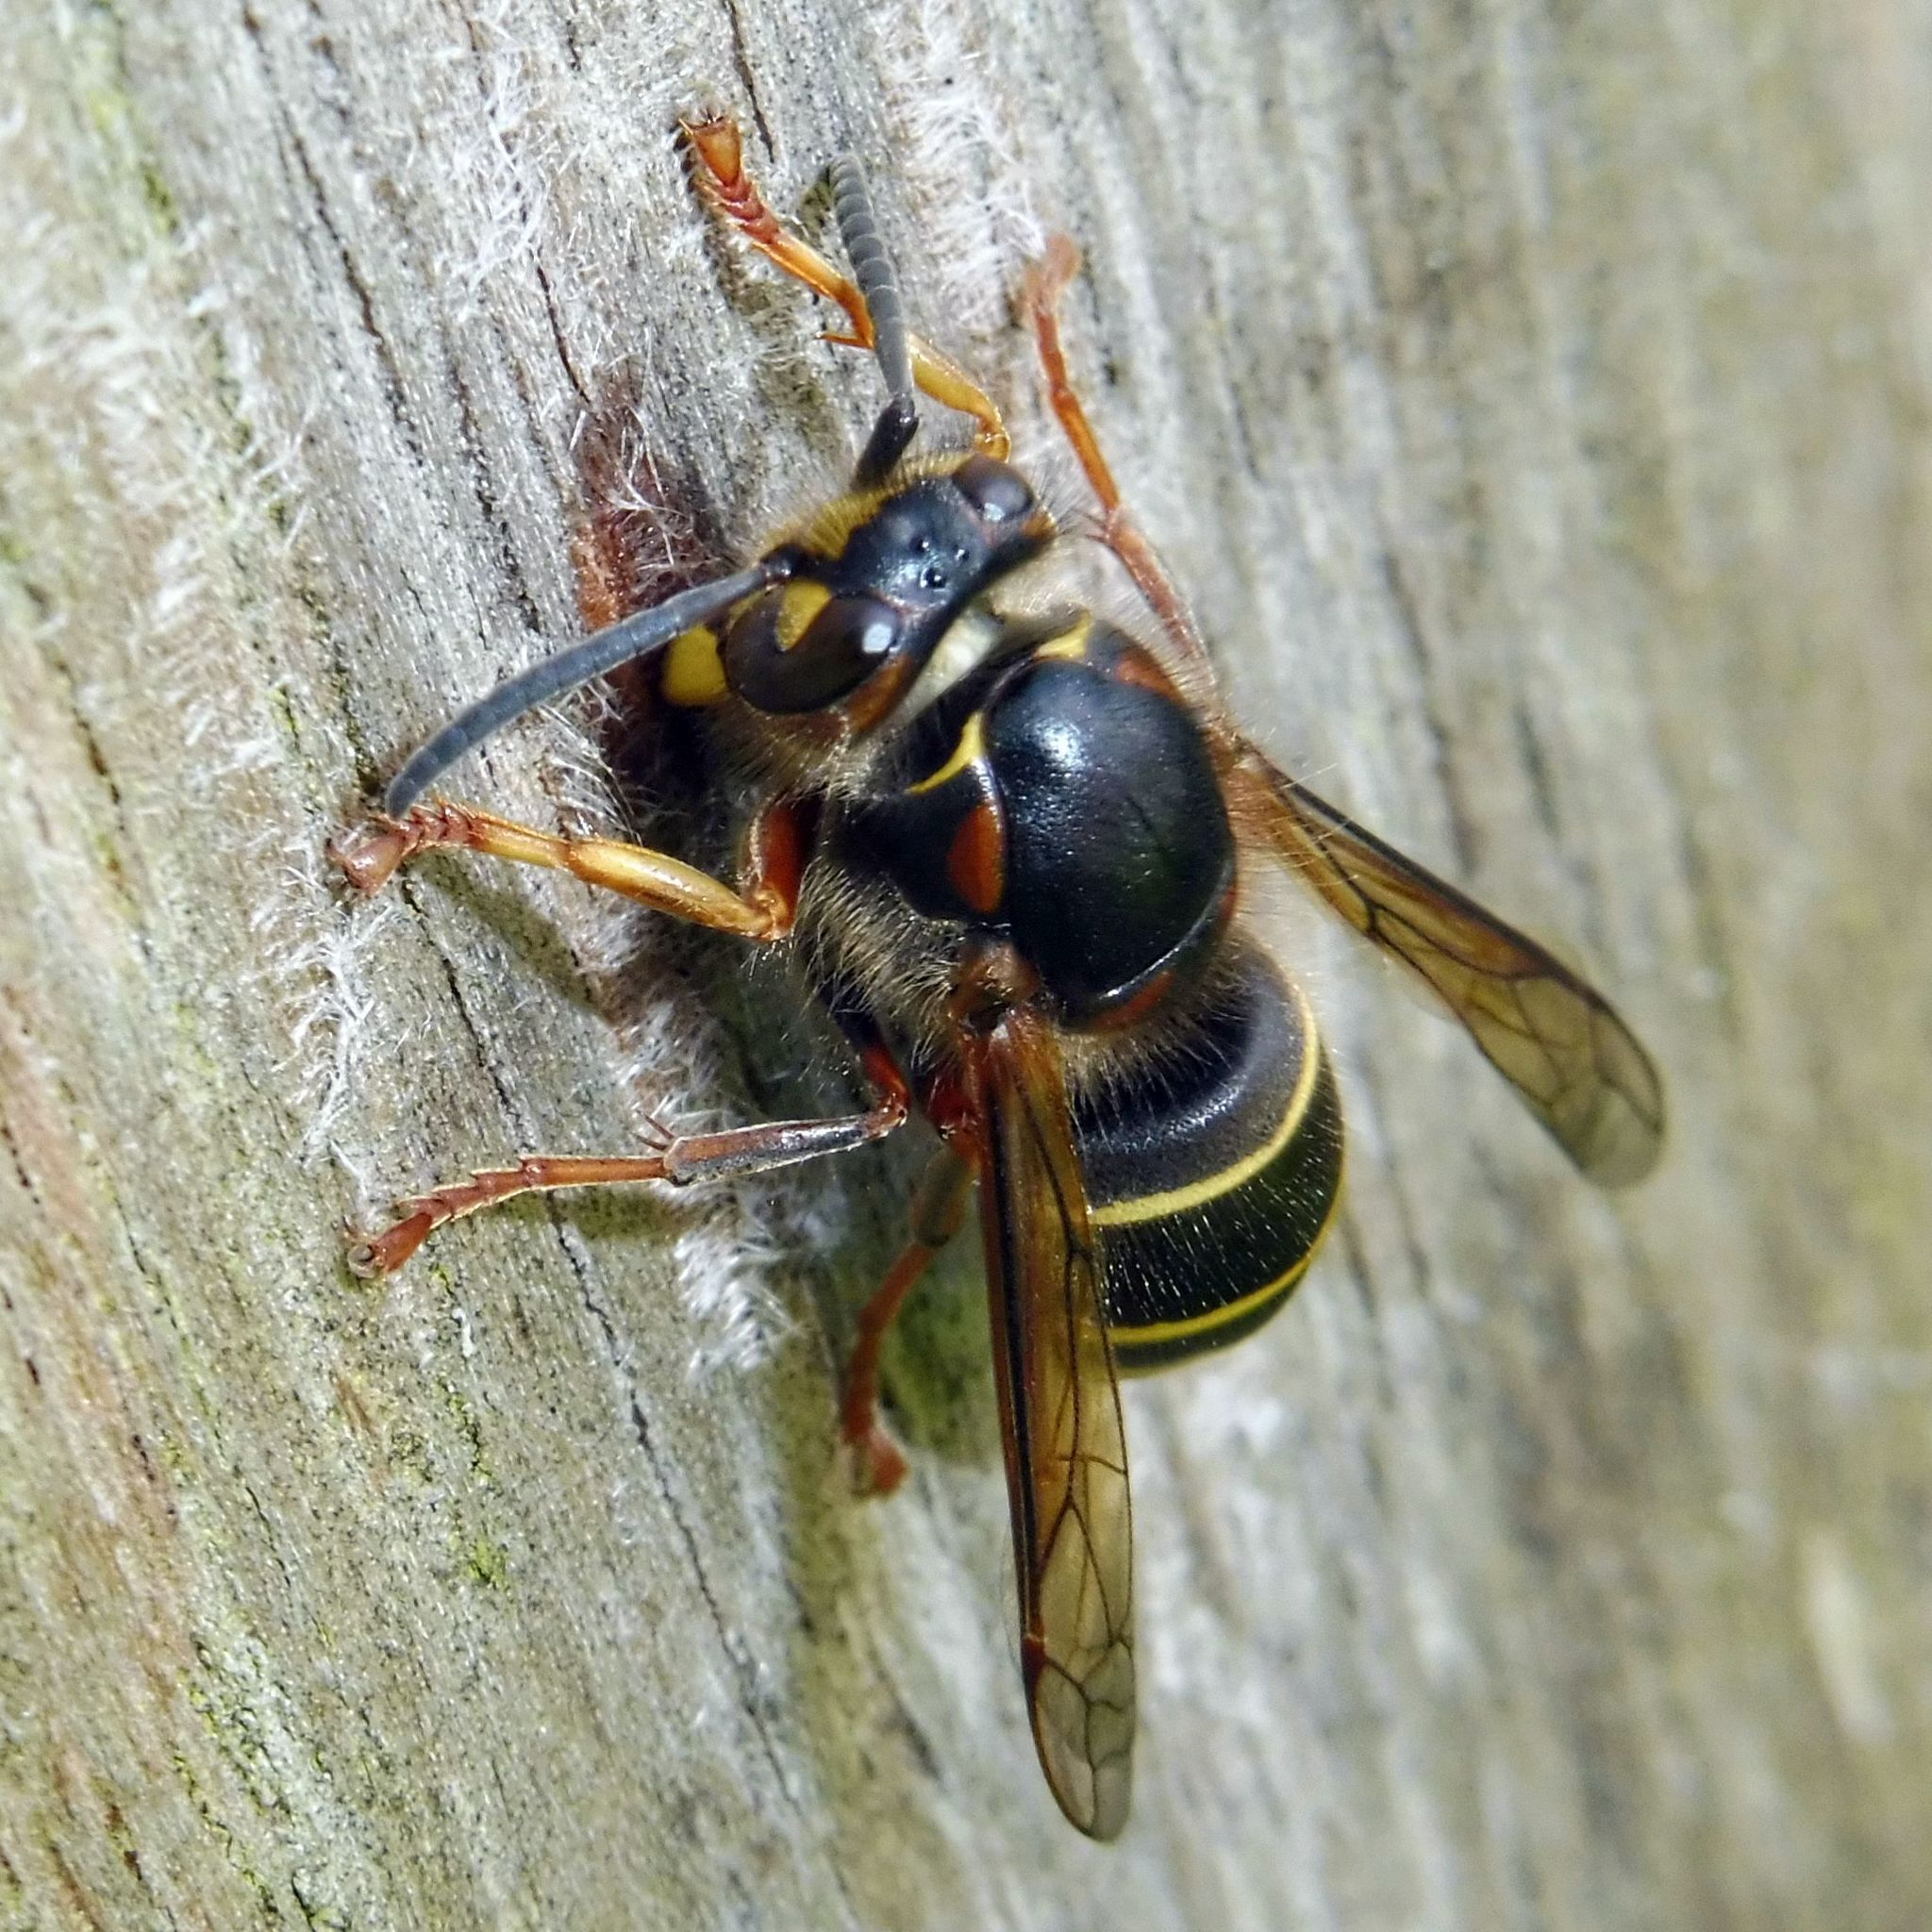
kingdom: Animalia
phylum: Arthropoda
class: Insecta
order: Hymenoptera
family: Vespidae
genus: Dolichovespula
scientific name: Dolichovespula media
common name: Median wasp
